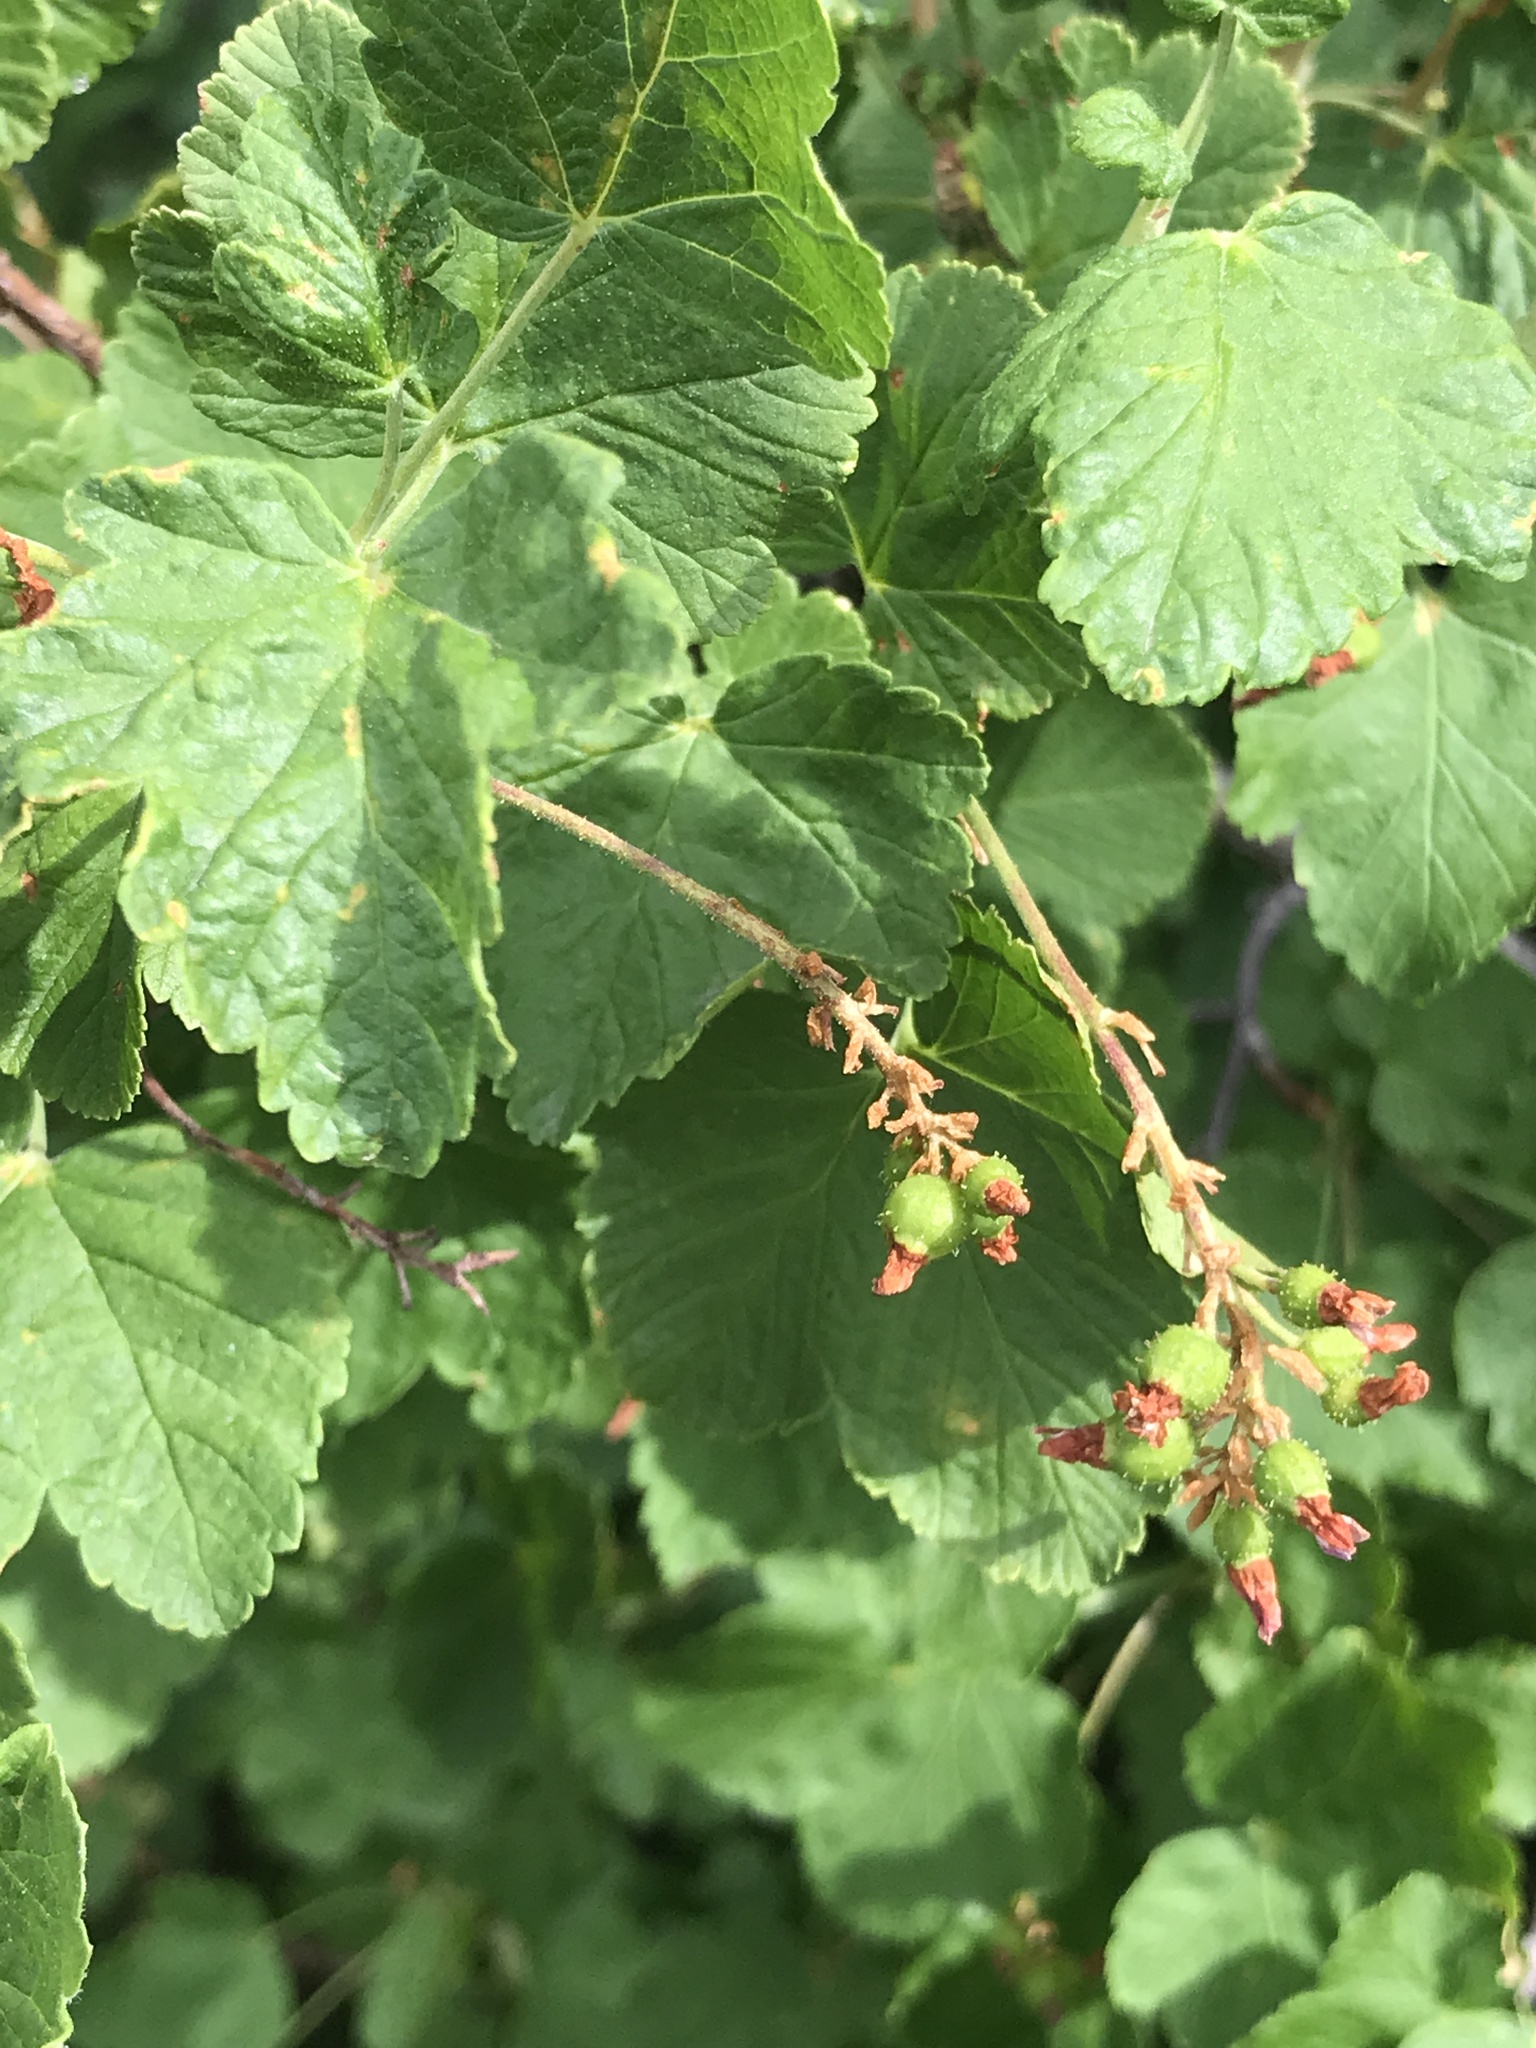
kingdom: Plantae
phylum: Tracheophyta
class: Magnoliopsida
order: Saxifragales
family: Grossulariaceae
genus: Ribes
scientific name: Ribes nevadense
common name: Mountain pink currant
